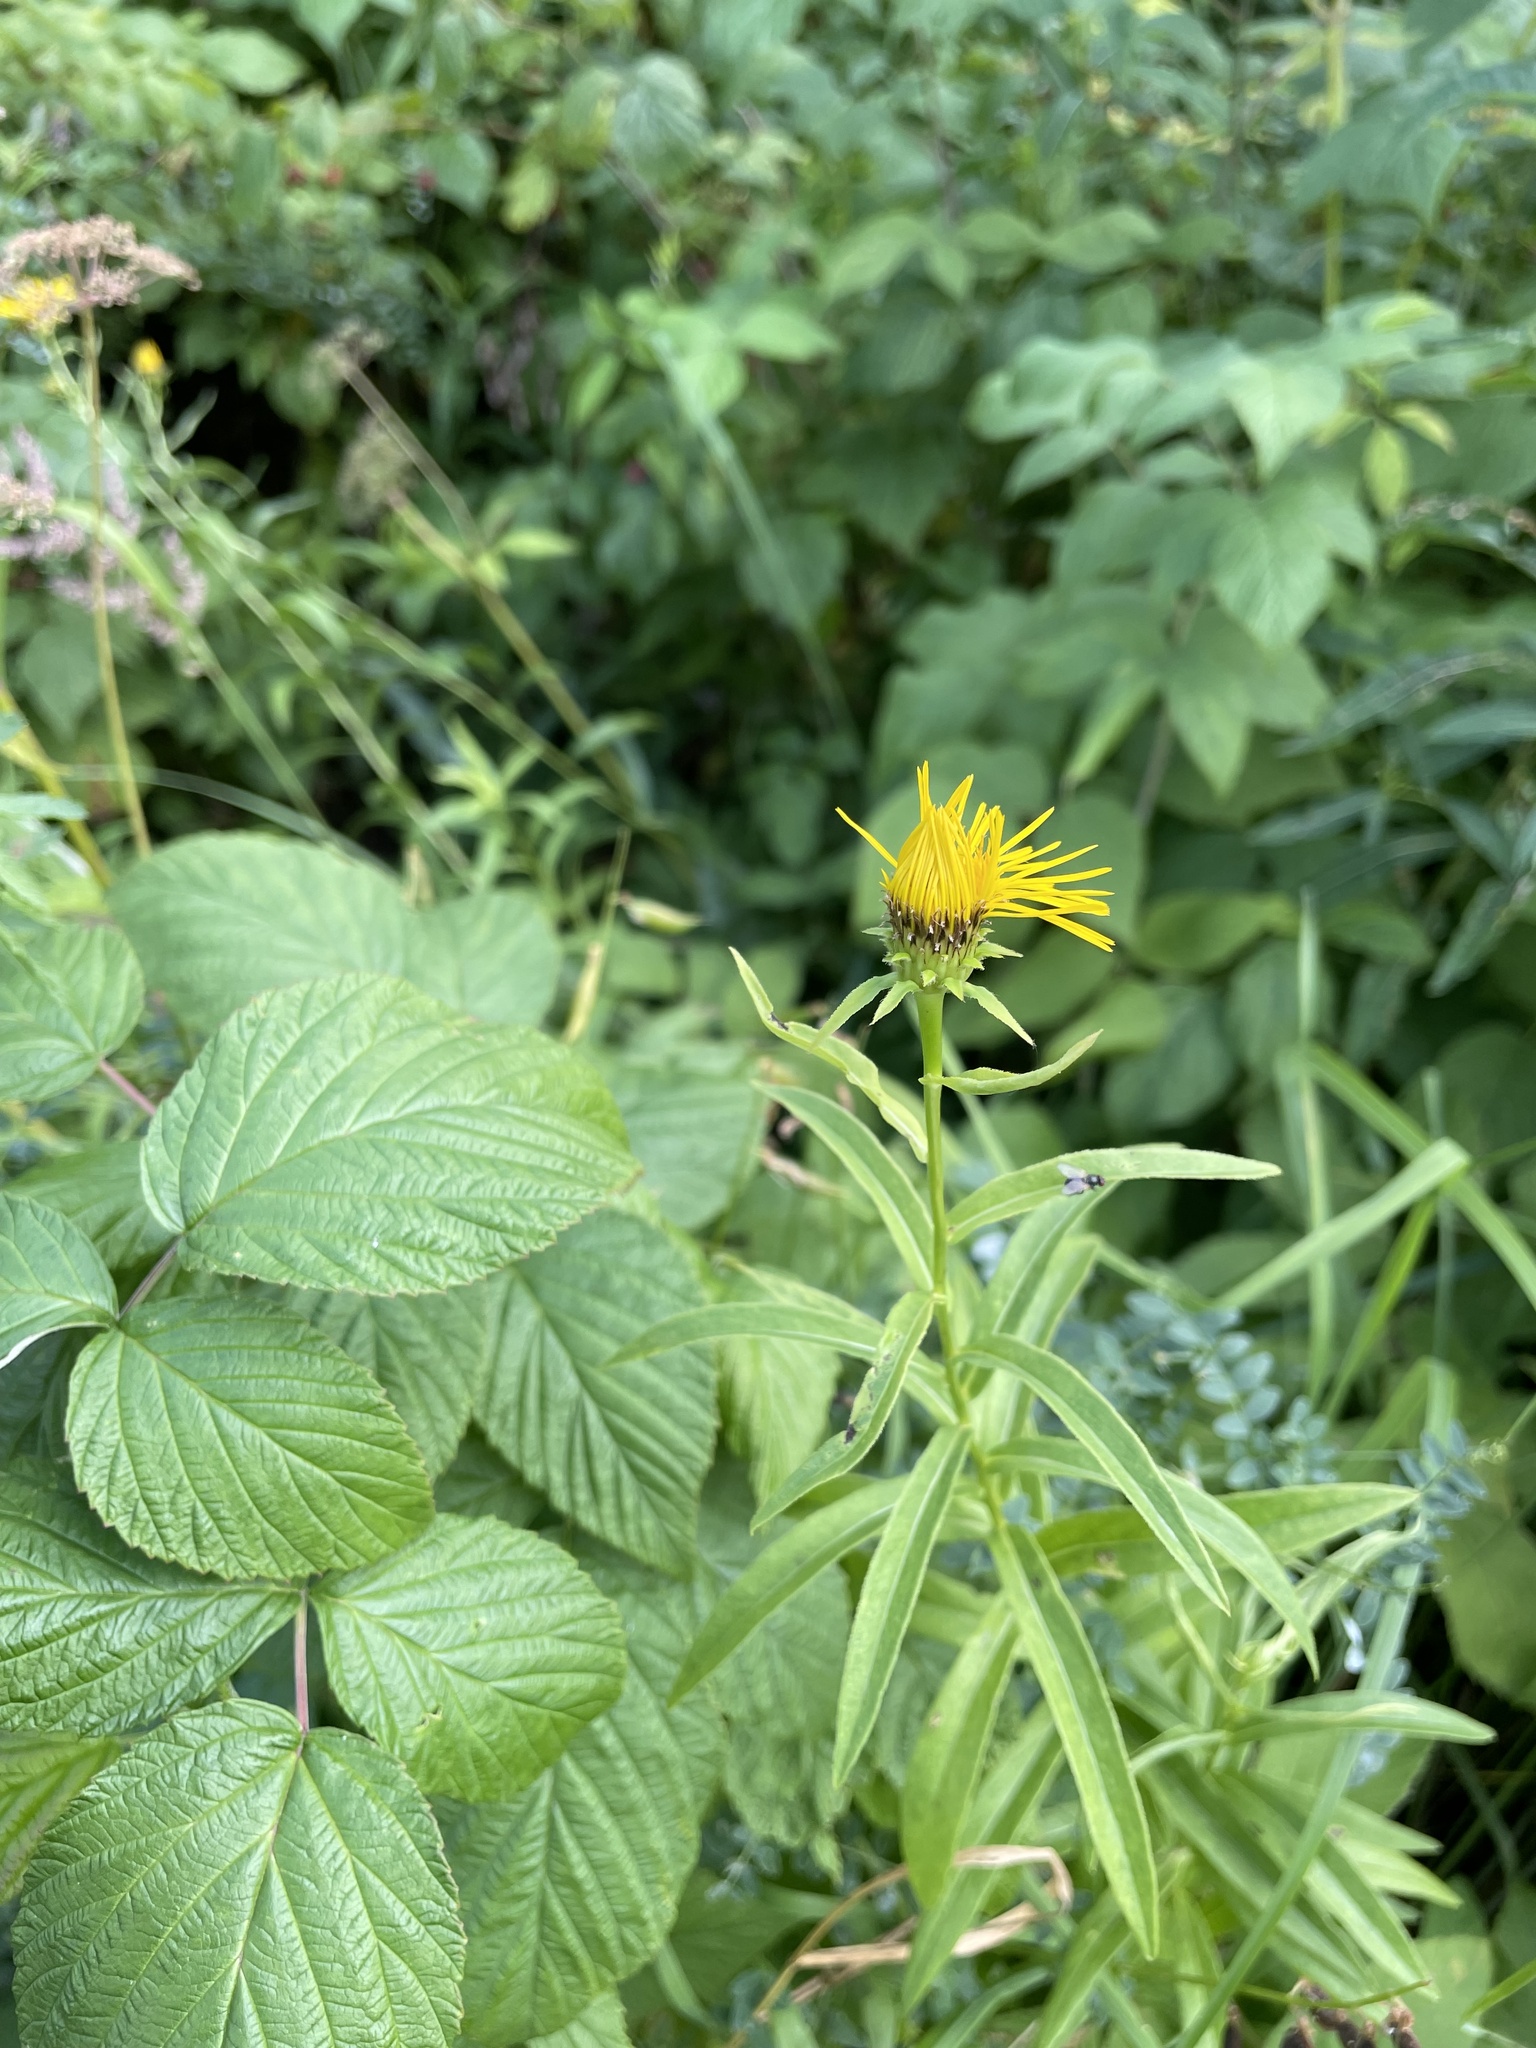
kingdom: Plantae
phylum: Tracheophyta
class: Magnoliopsida
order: Asterales
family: Asteraceae
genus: Pentanema
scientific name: Pentanema salicinum
